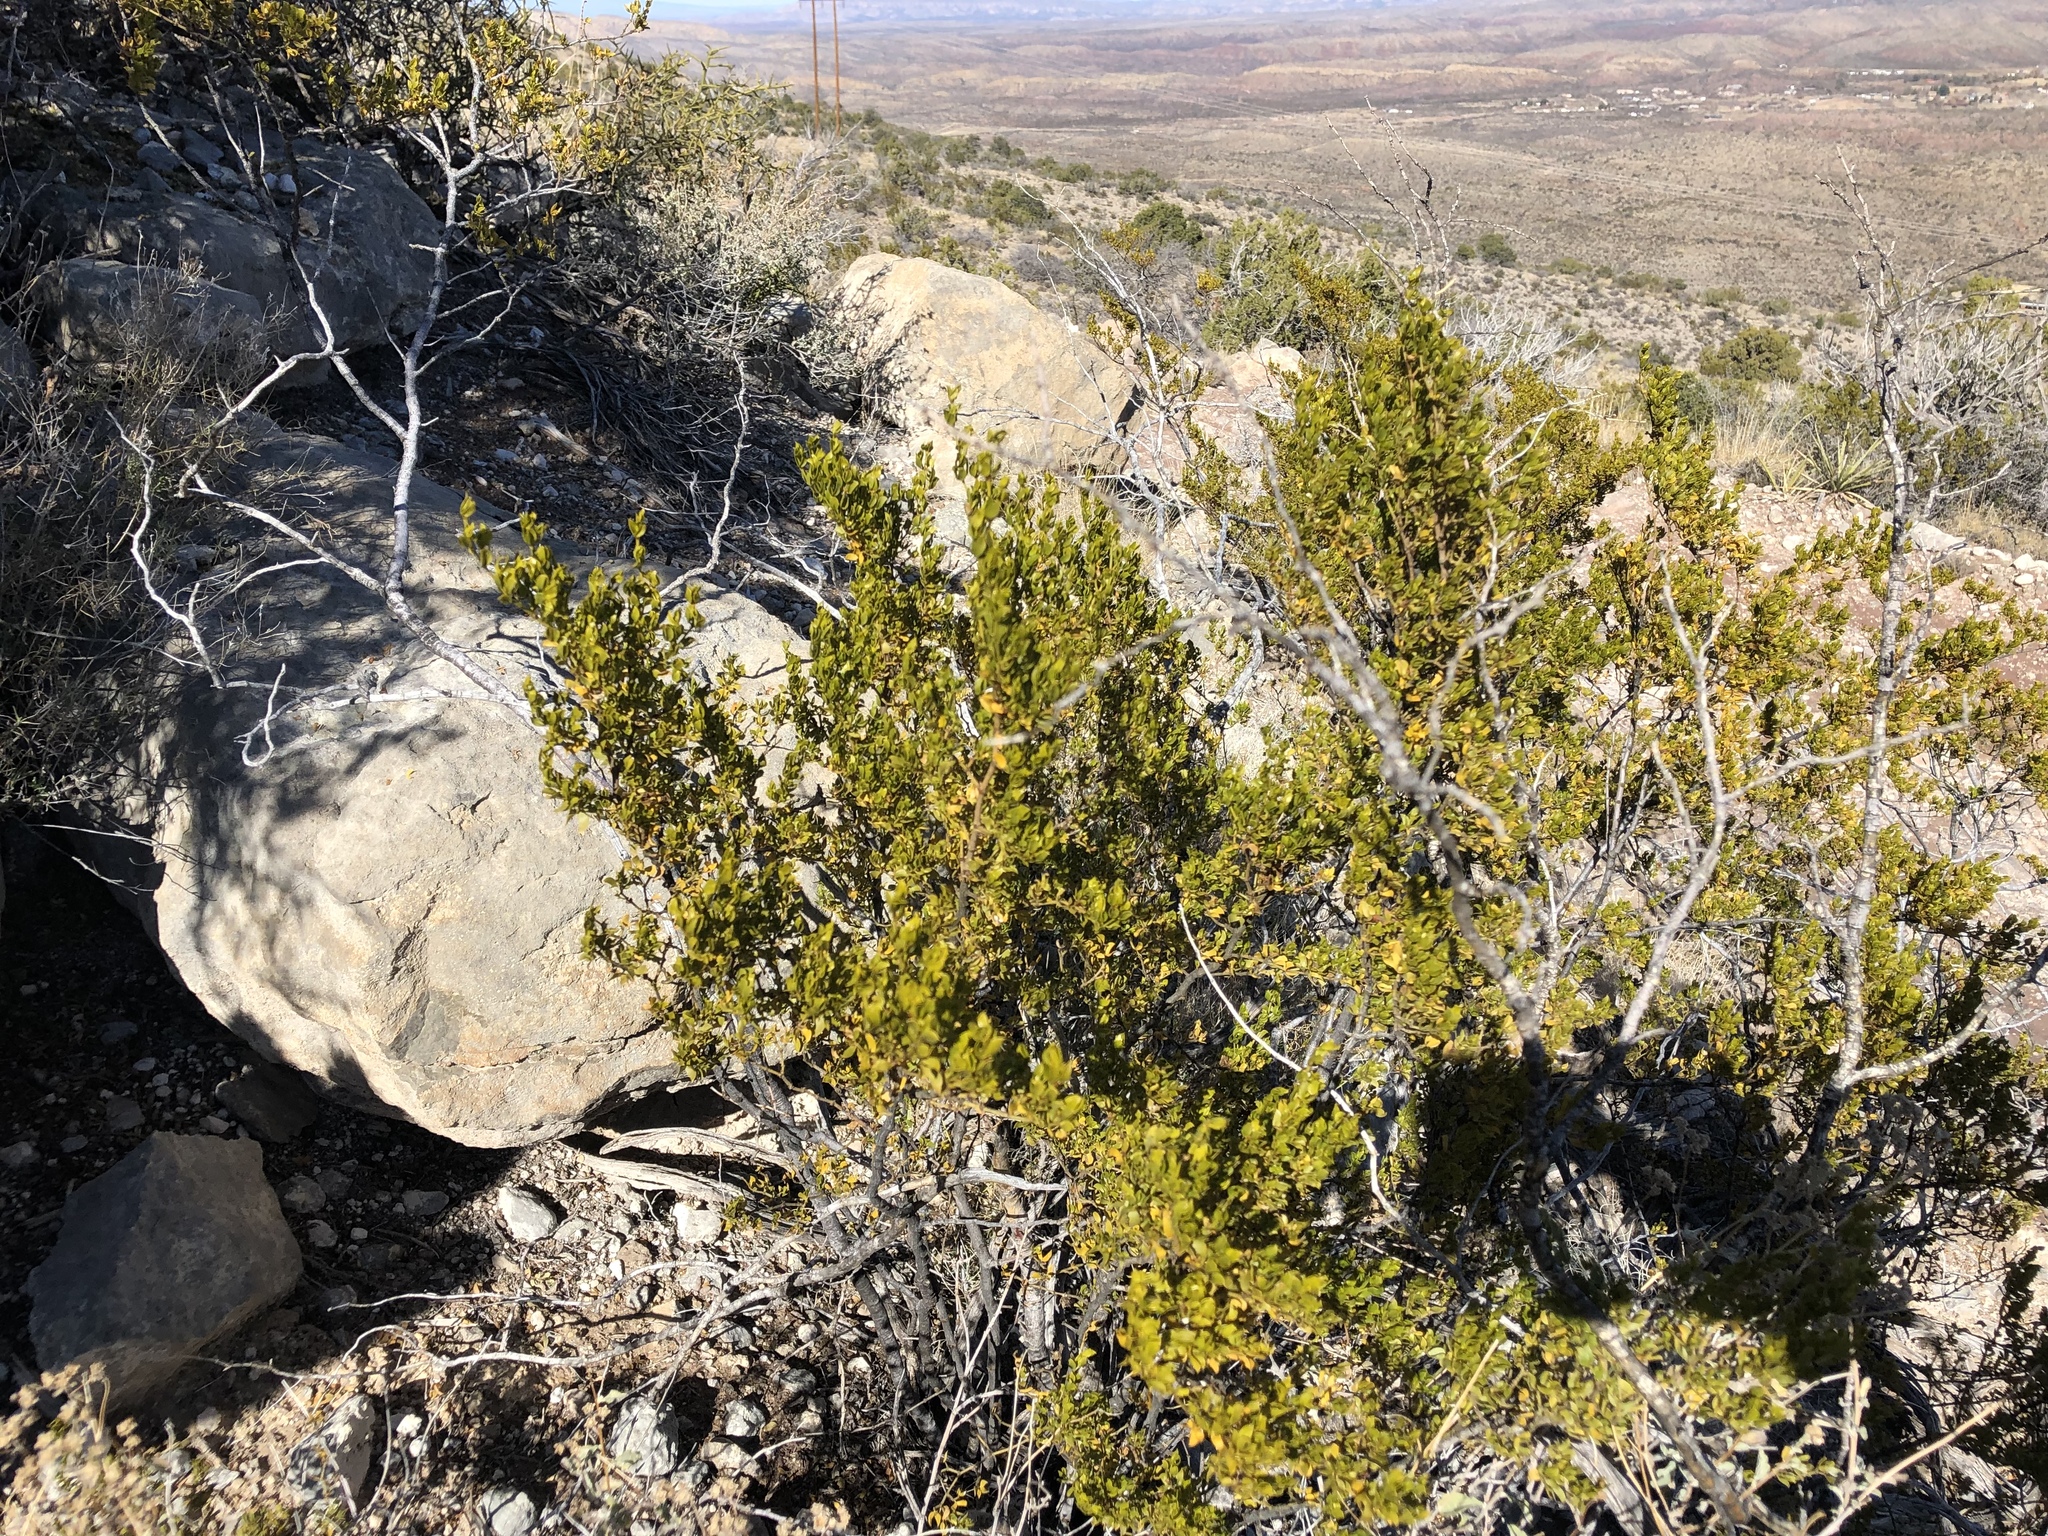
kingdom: Plantae
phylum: Tracheophyta
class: Magnoliopsida
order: Zygophyllales
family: Zygophyllaceae
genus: Larrea
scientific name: Larrea tridentata
